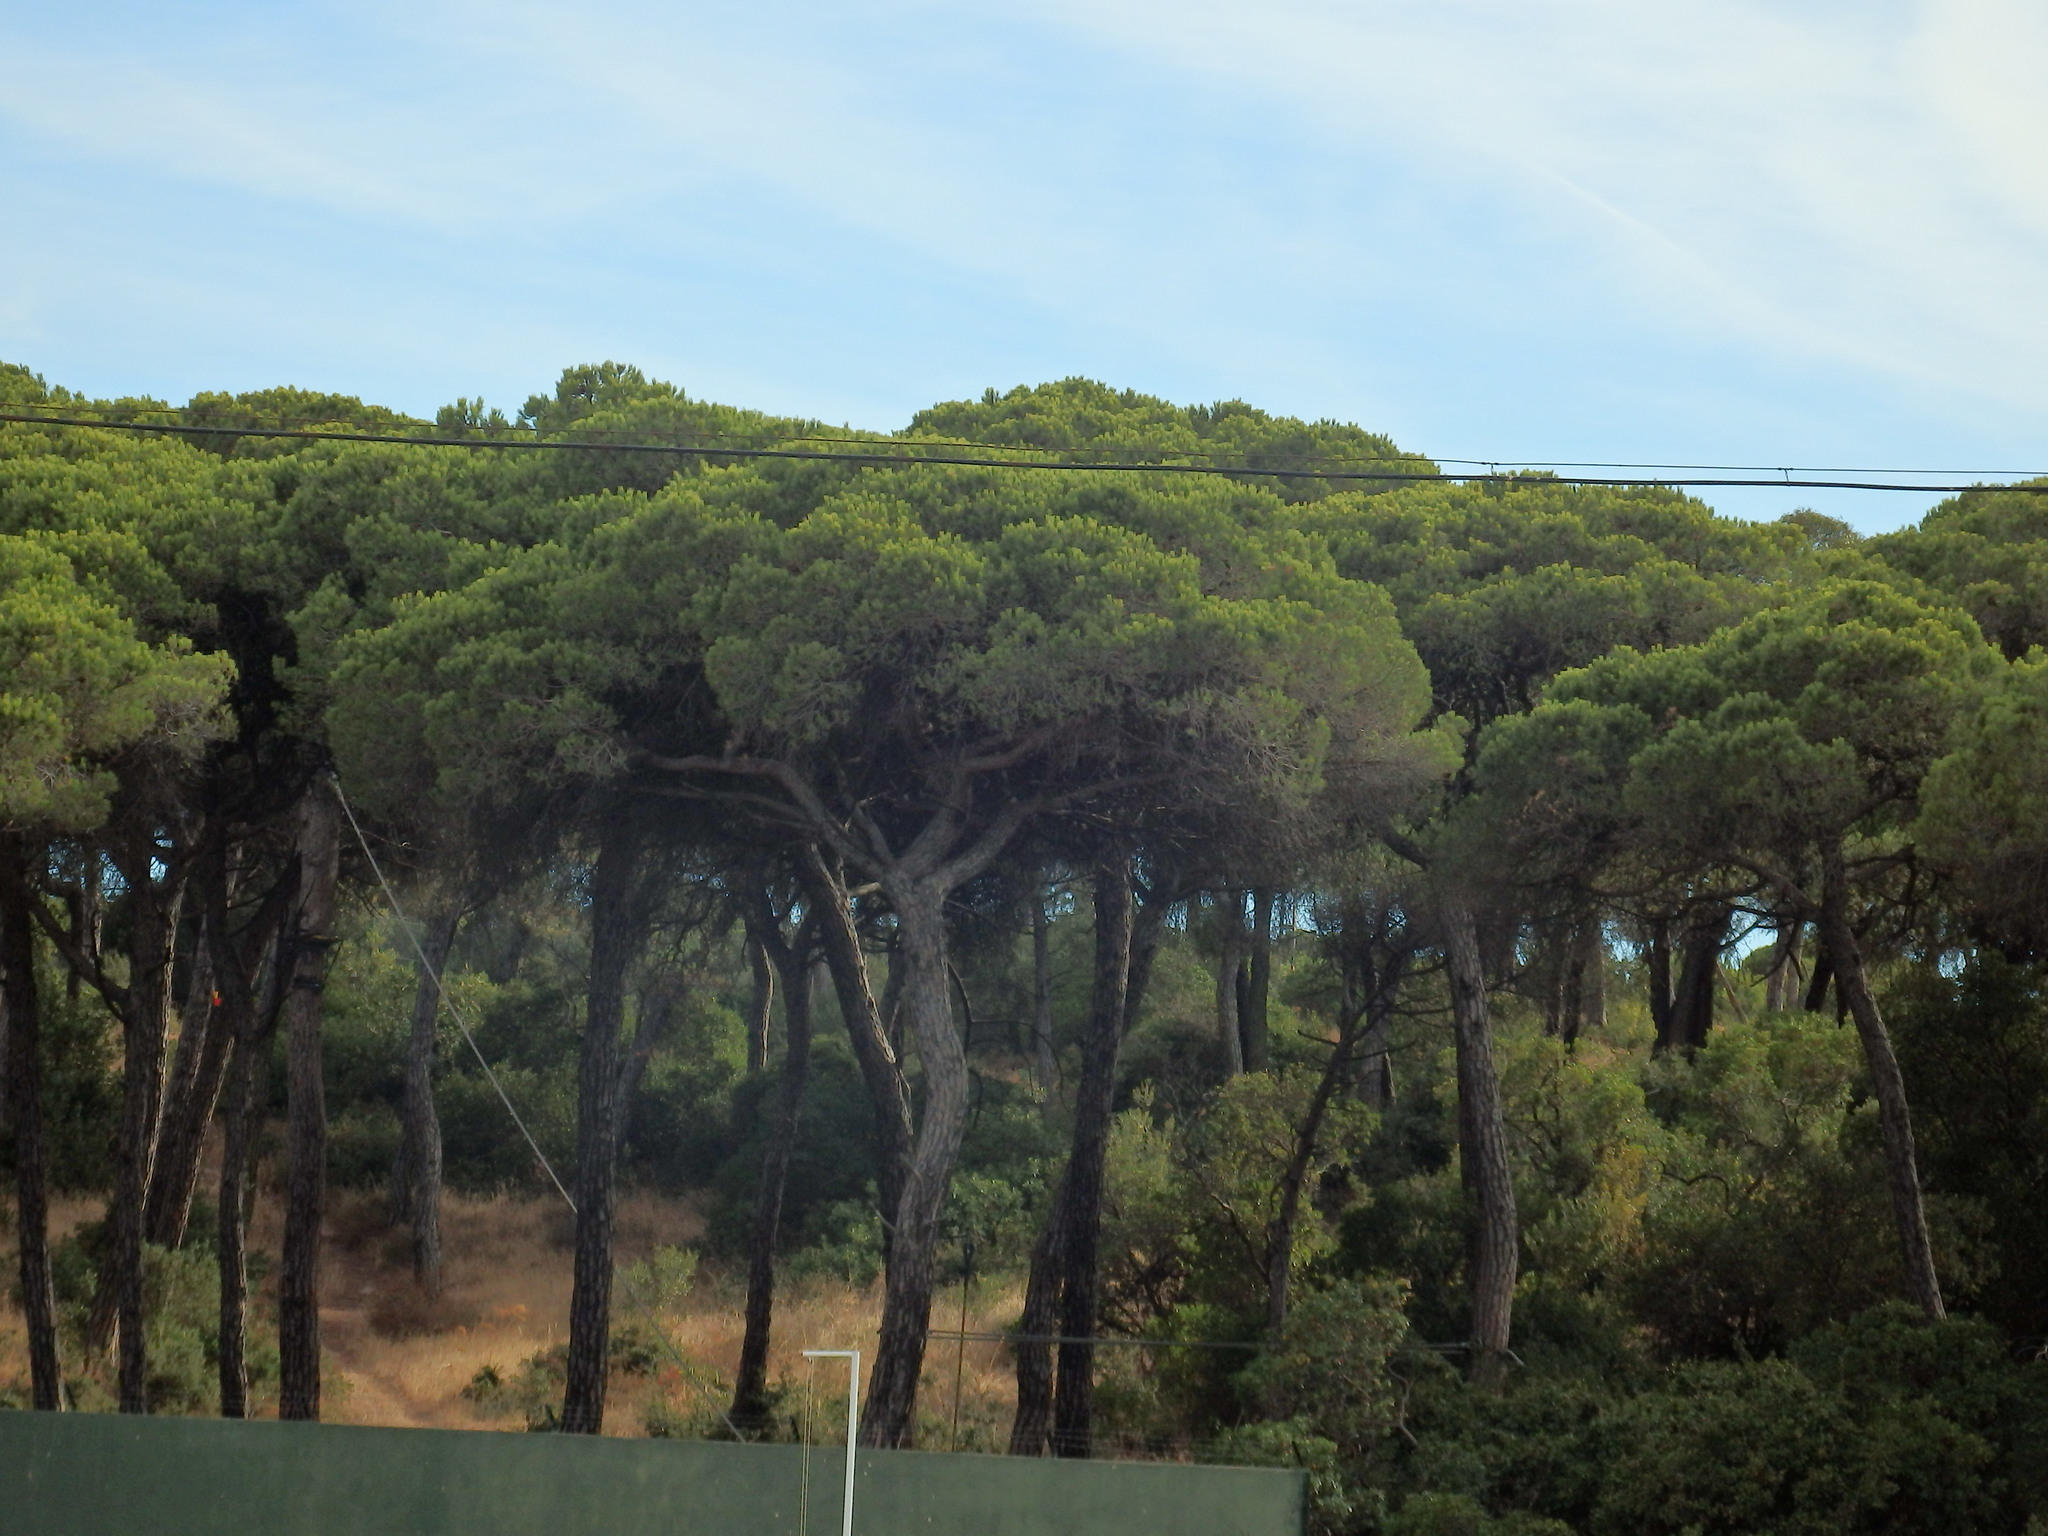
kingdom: Plantae
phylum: Tracheophyta
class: Pinopsida
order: Pinales
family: Pinaceae
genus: Pinus
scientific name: Pinus pinea
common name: Italian stone pine
